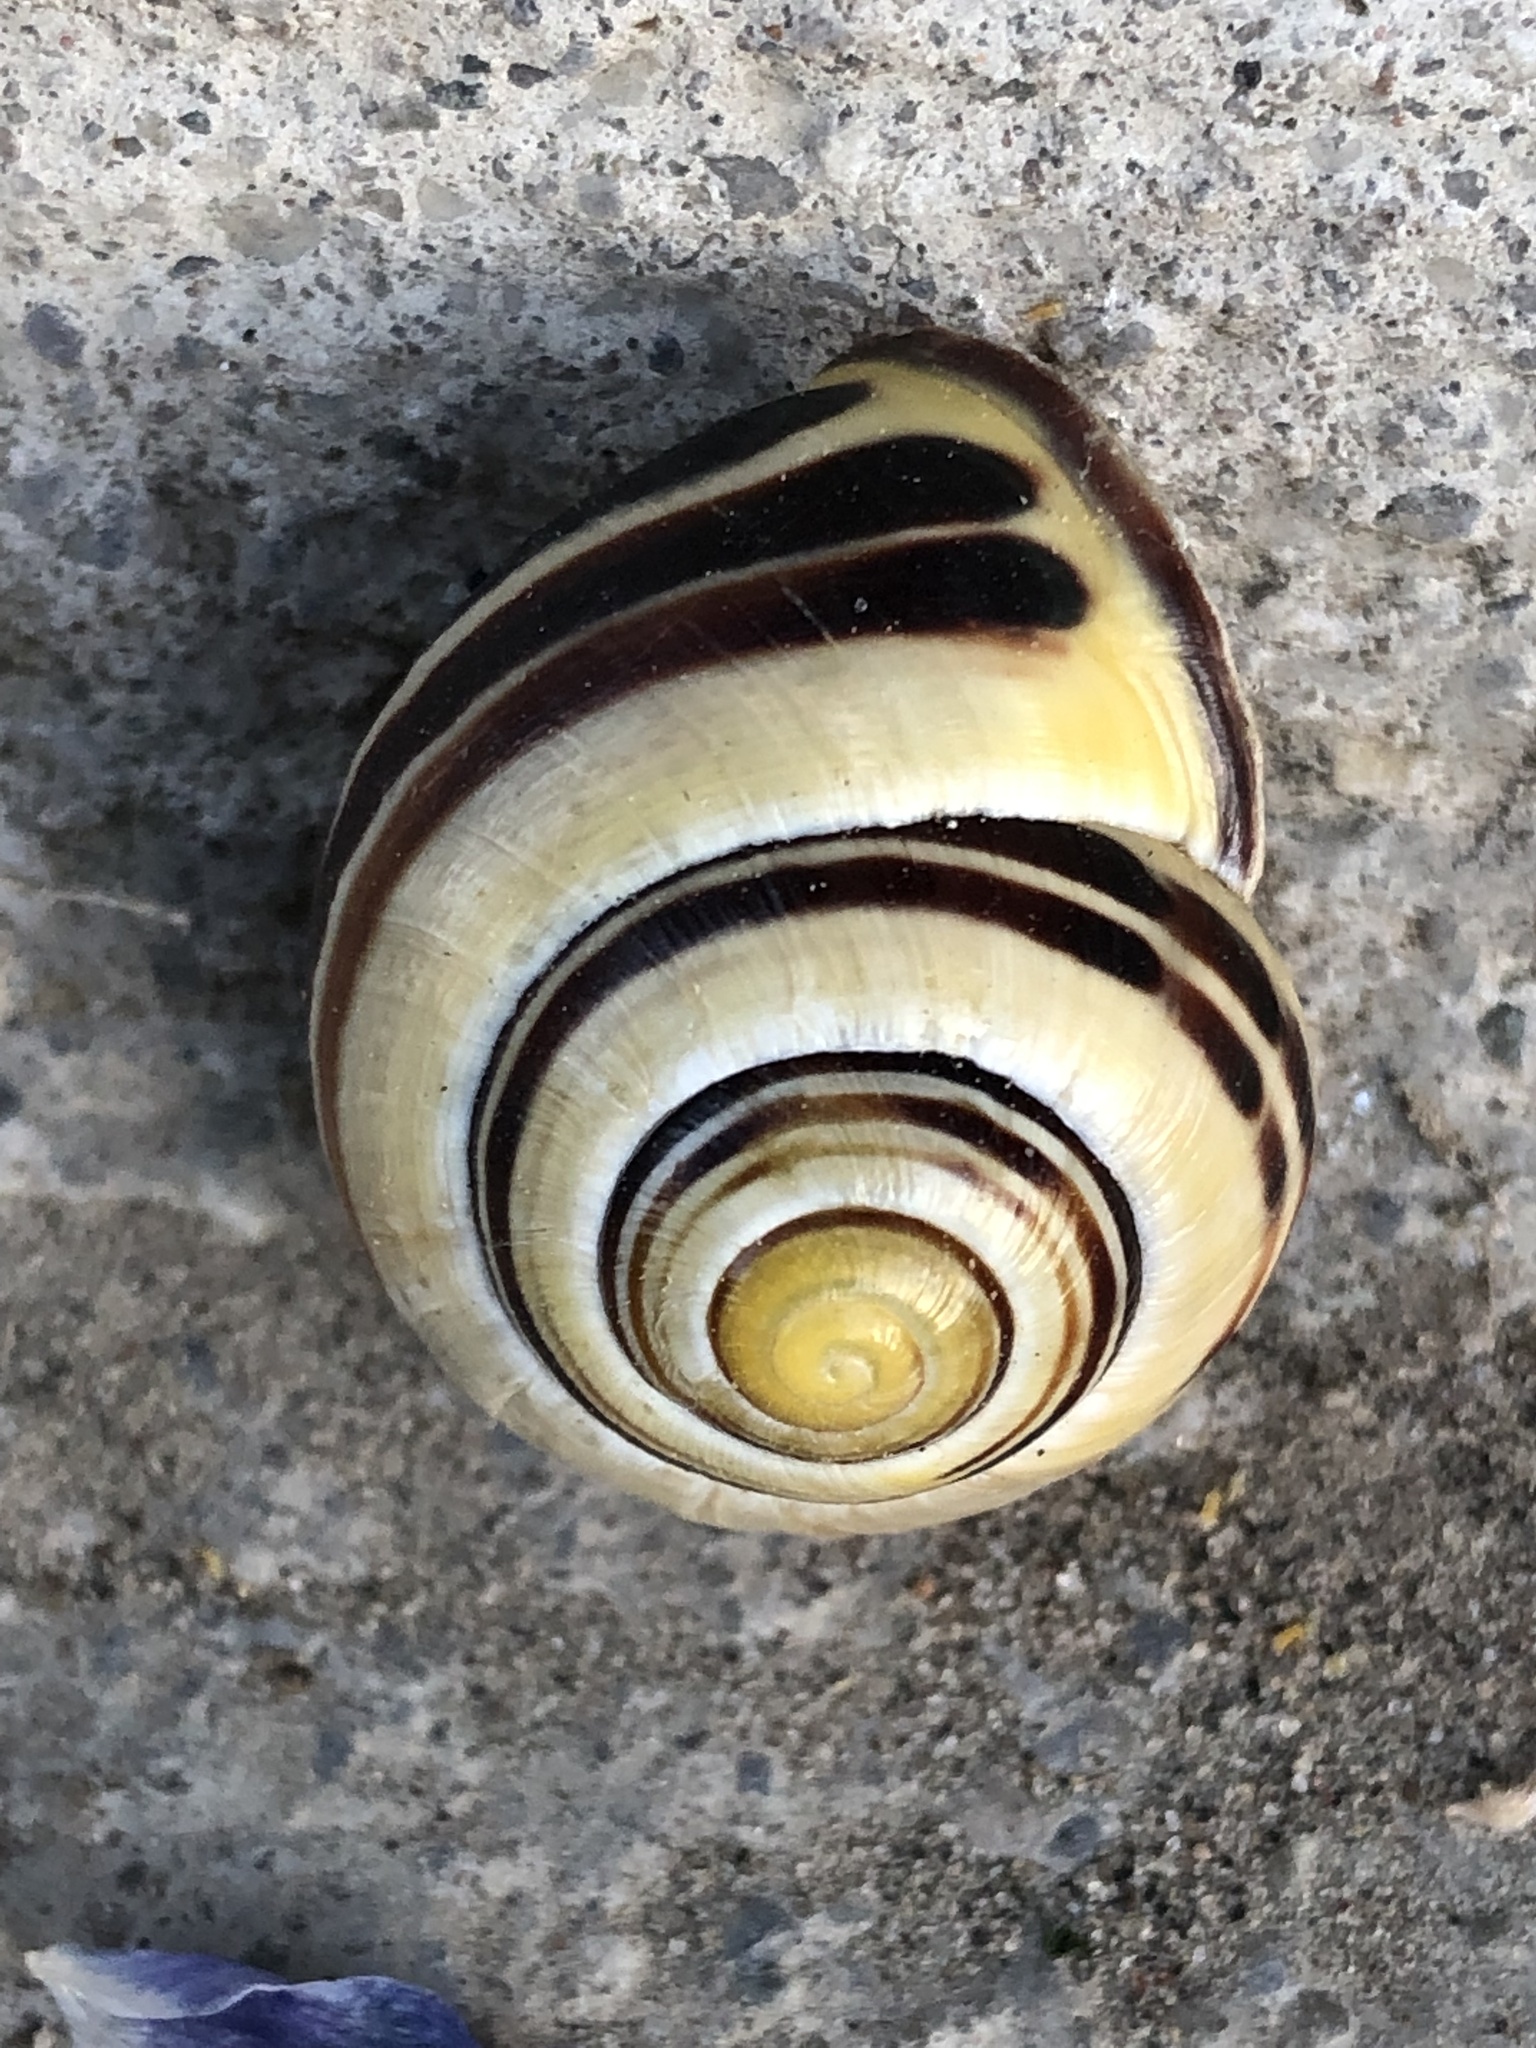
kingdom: Animalia
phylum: Mollusca
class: Gastropoda
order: Stylommatophora
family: Helicidae
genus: Cepaea
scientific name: Cepaea nemoralis
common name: Grovesnail
